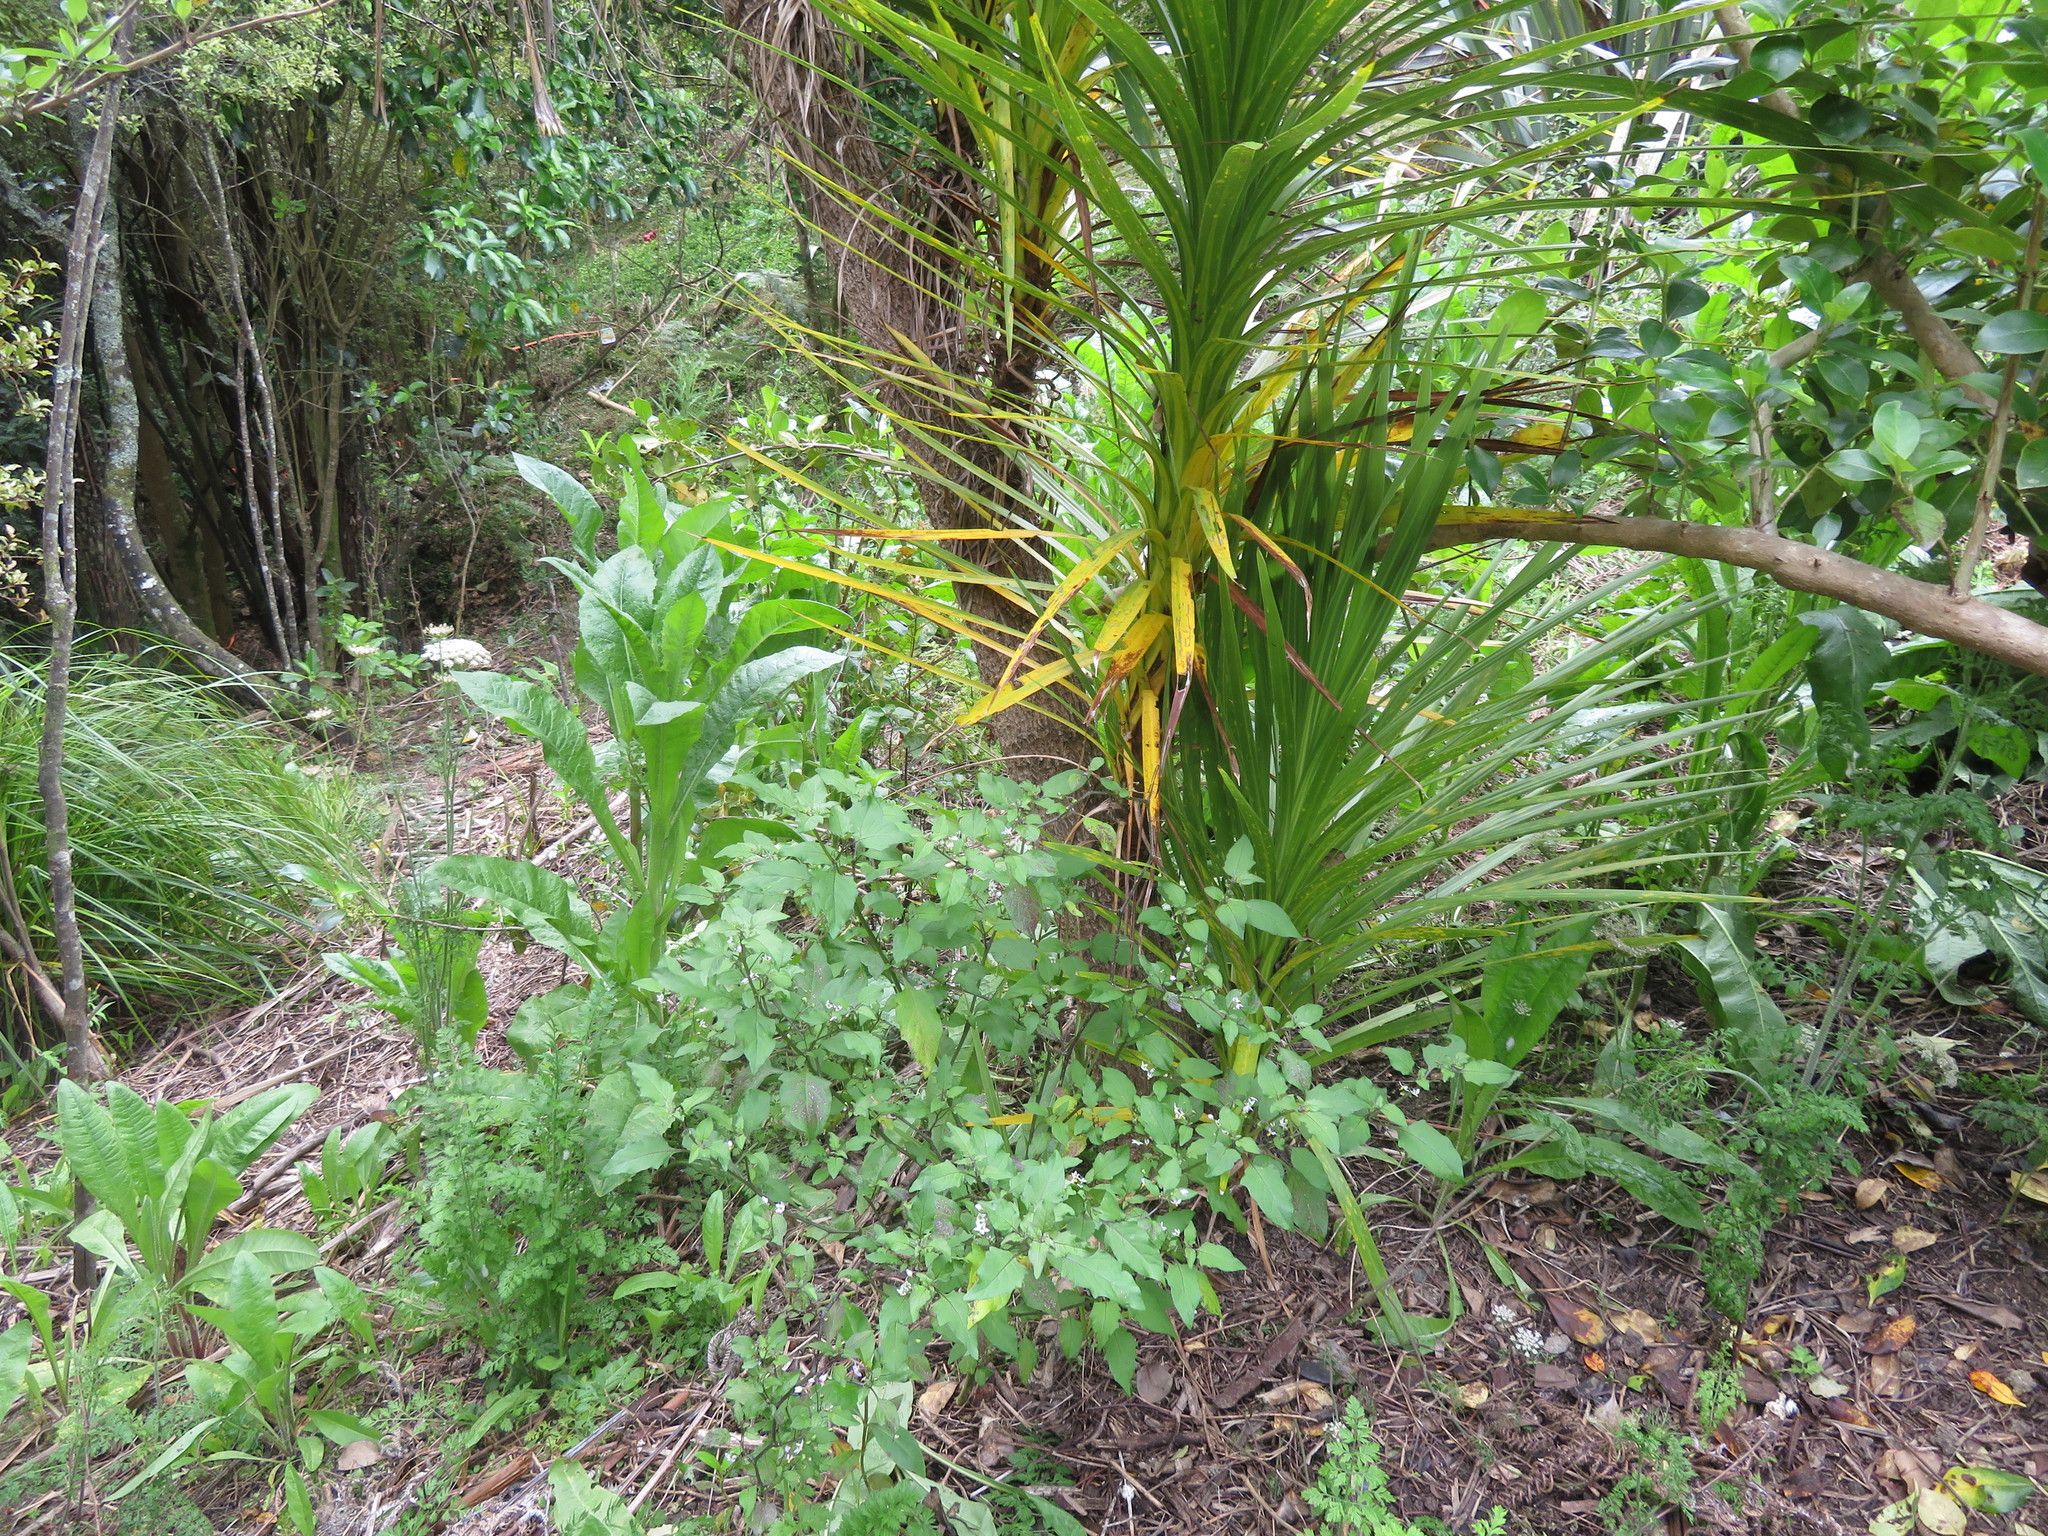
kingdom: Plantae
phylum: Tracheophyta
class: Magnoliopsida
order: Asterales
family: Asteraceae
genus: Helminthotheca
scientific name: Helminthotheca echioides
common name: Ox-tongue
